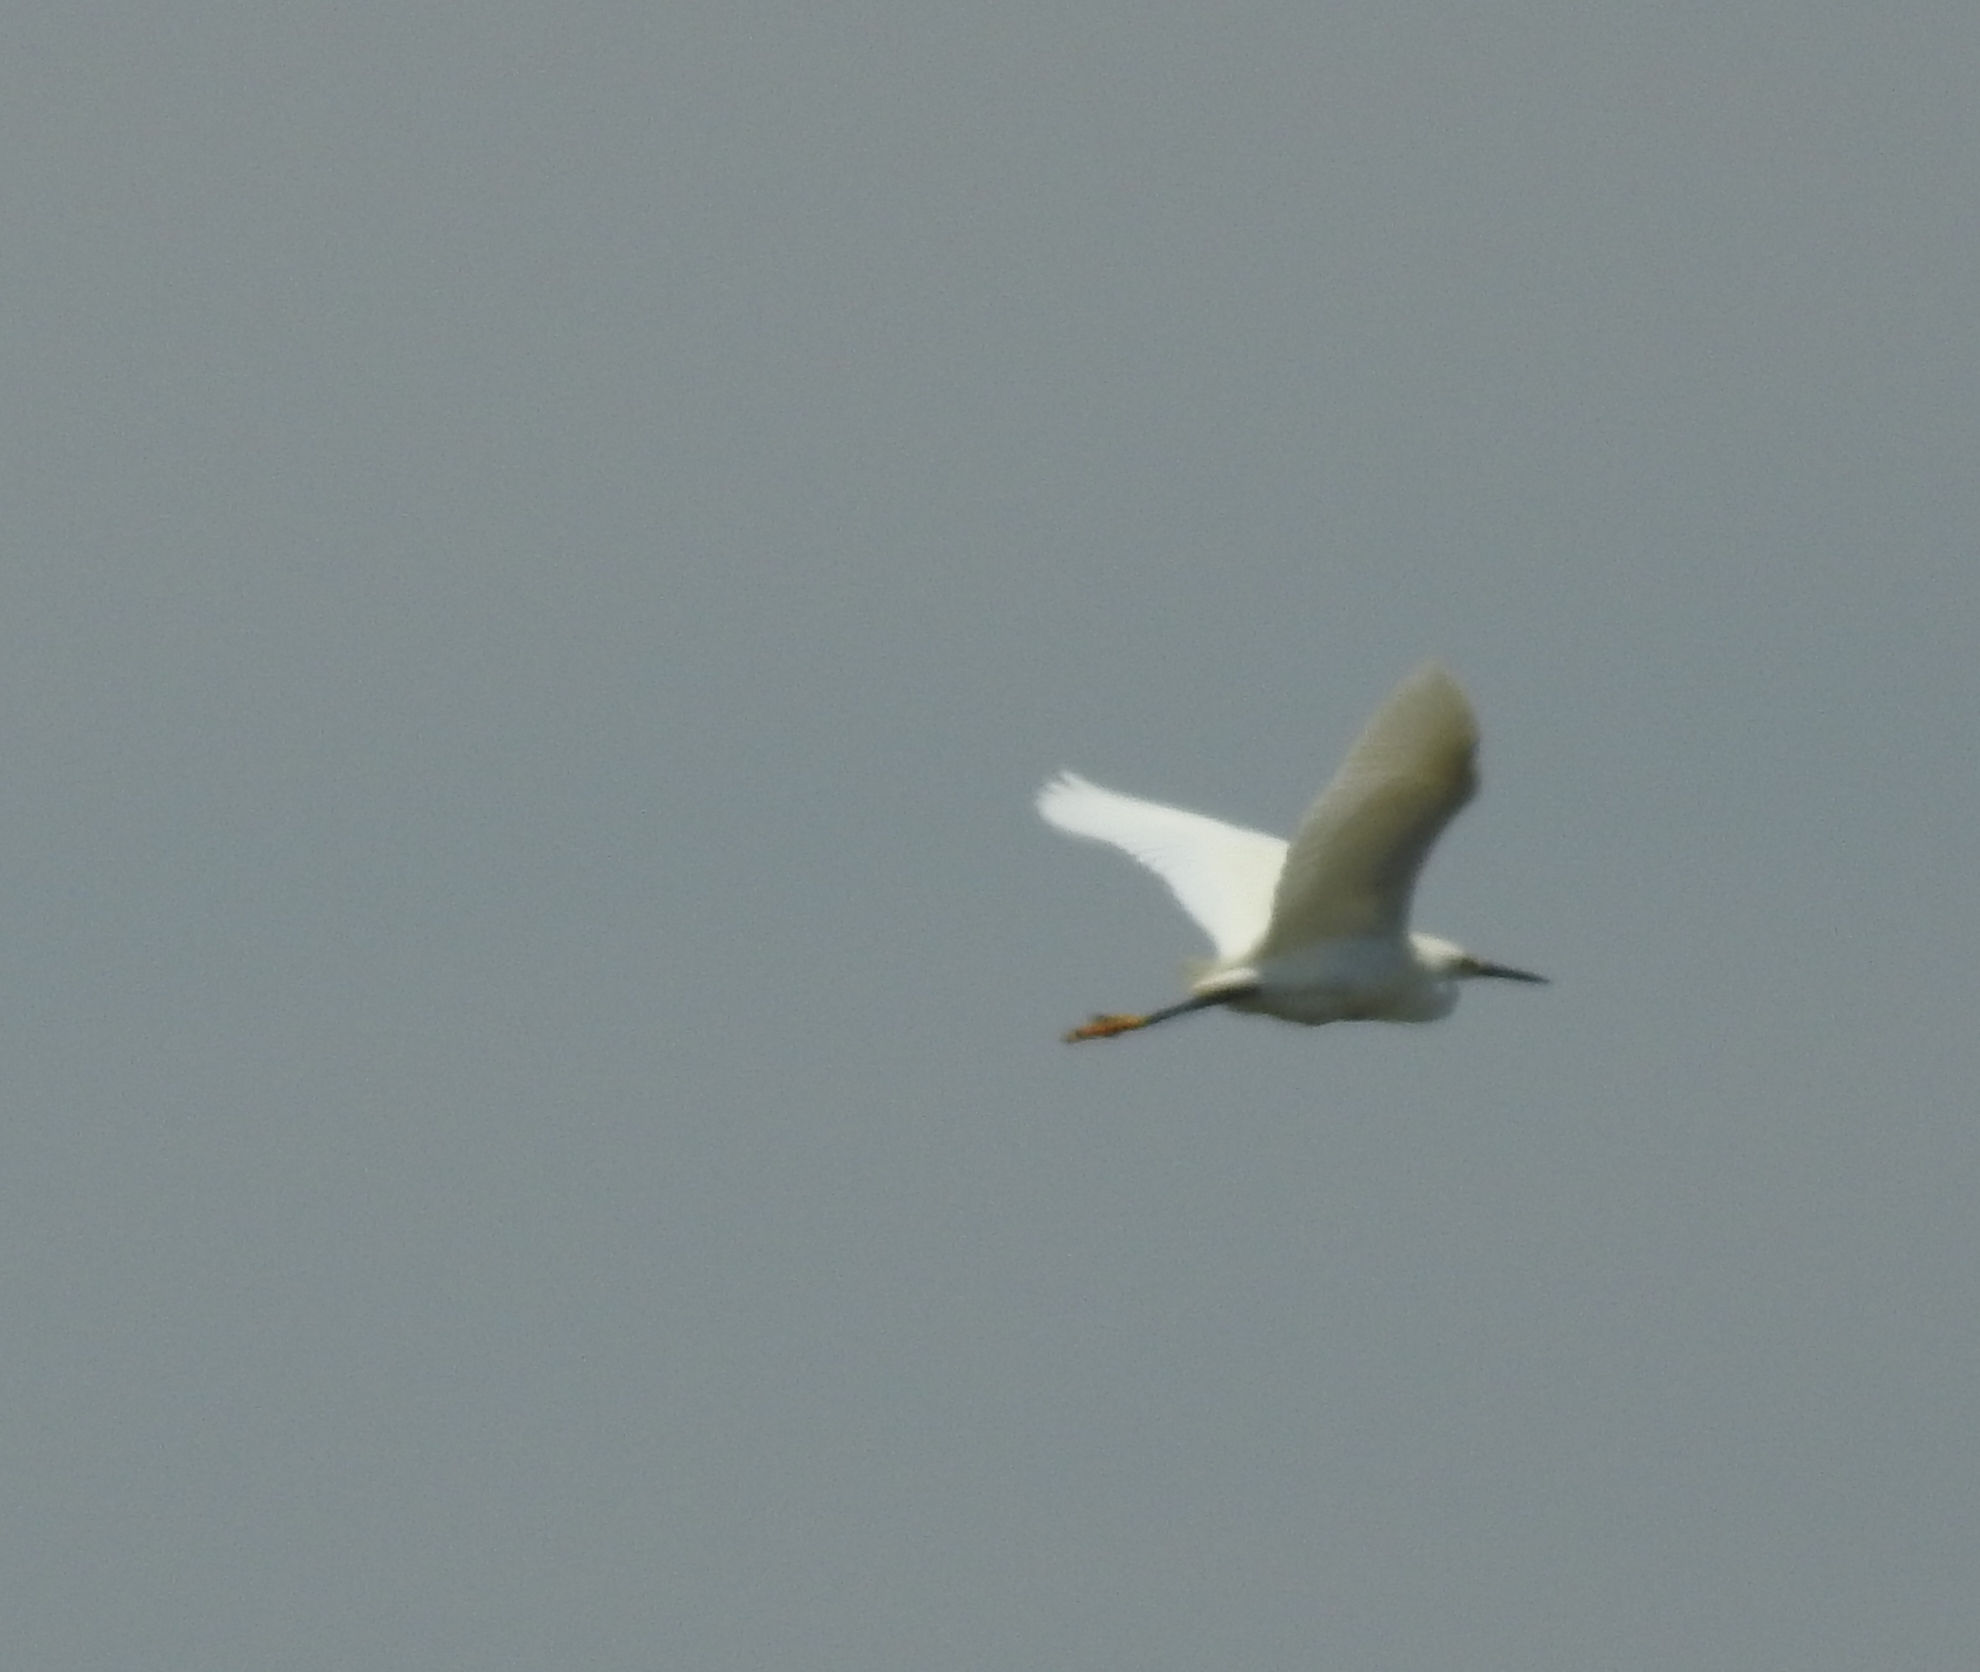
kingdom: Animalia
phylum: Chordata
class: Aves
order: Pelecaniformes
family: Ardeidae
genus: Egretta
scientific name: Egretta thula
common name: Snowy egret
